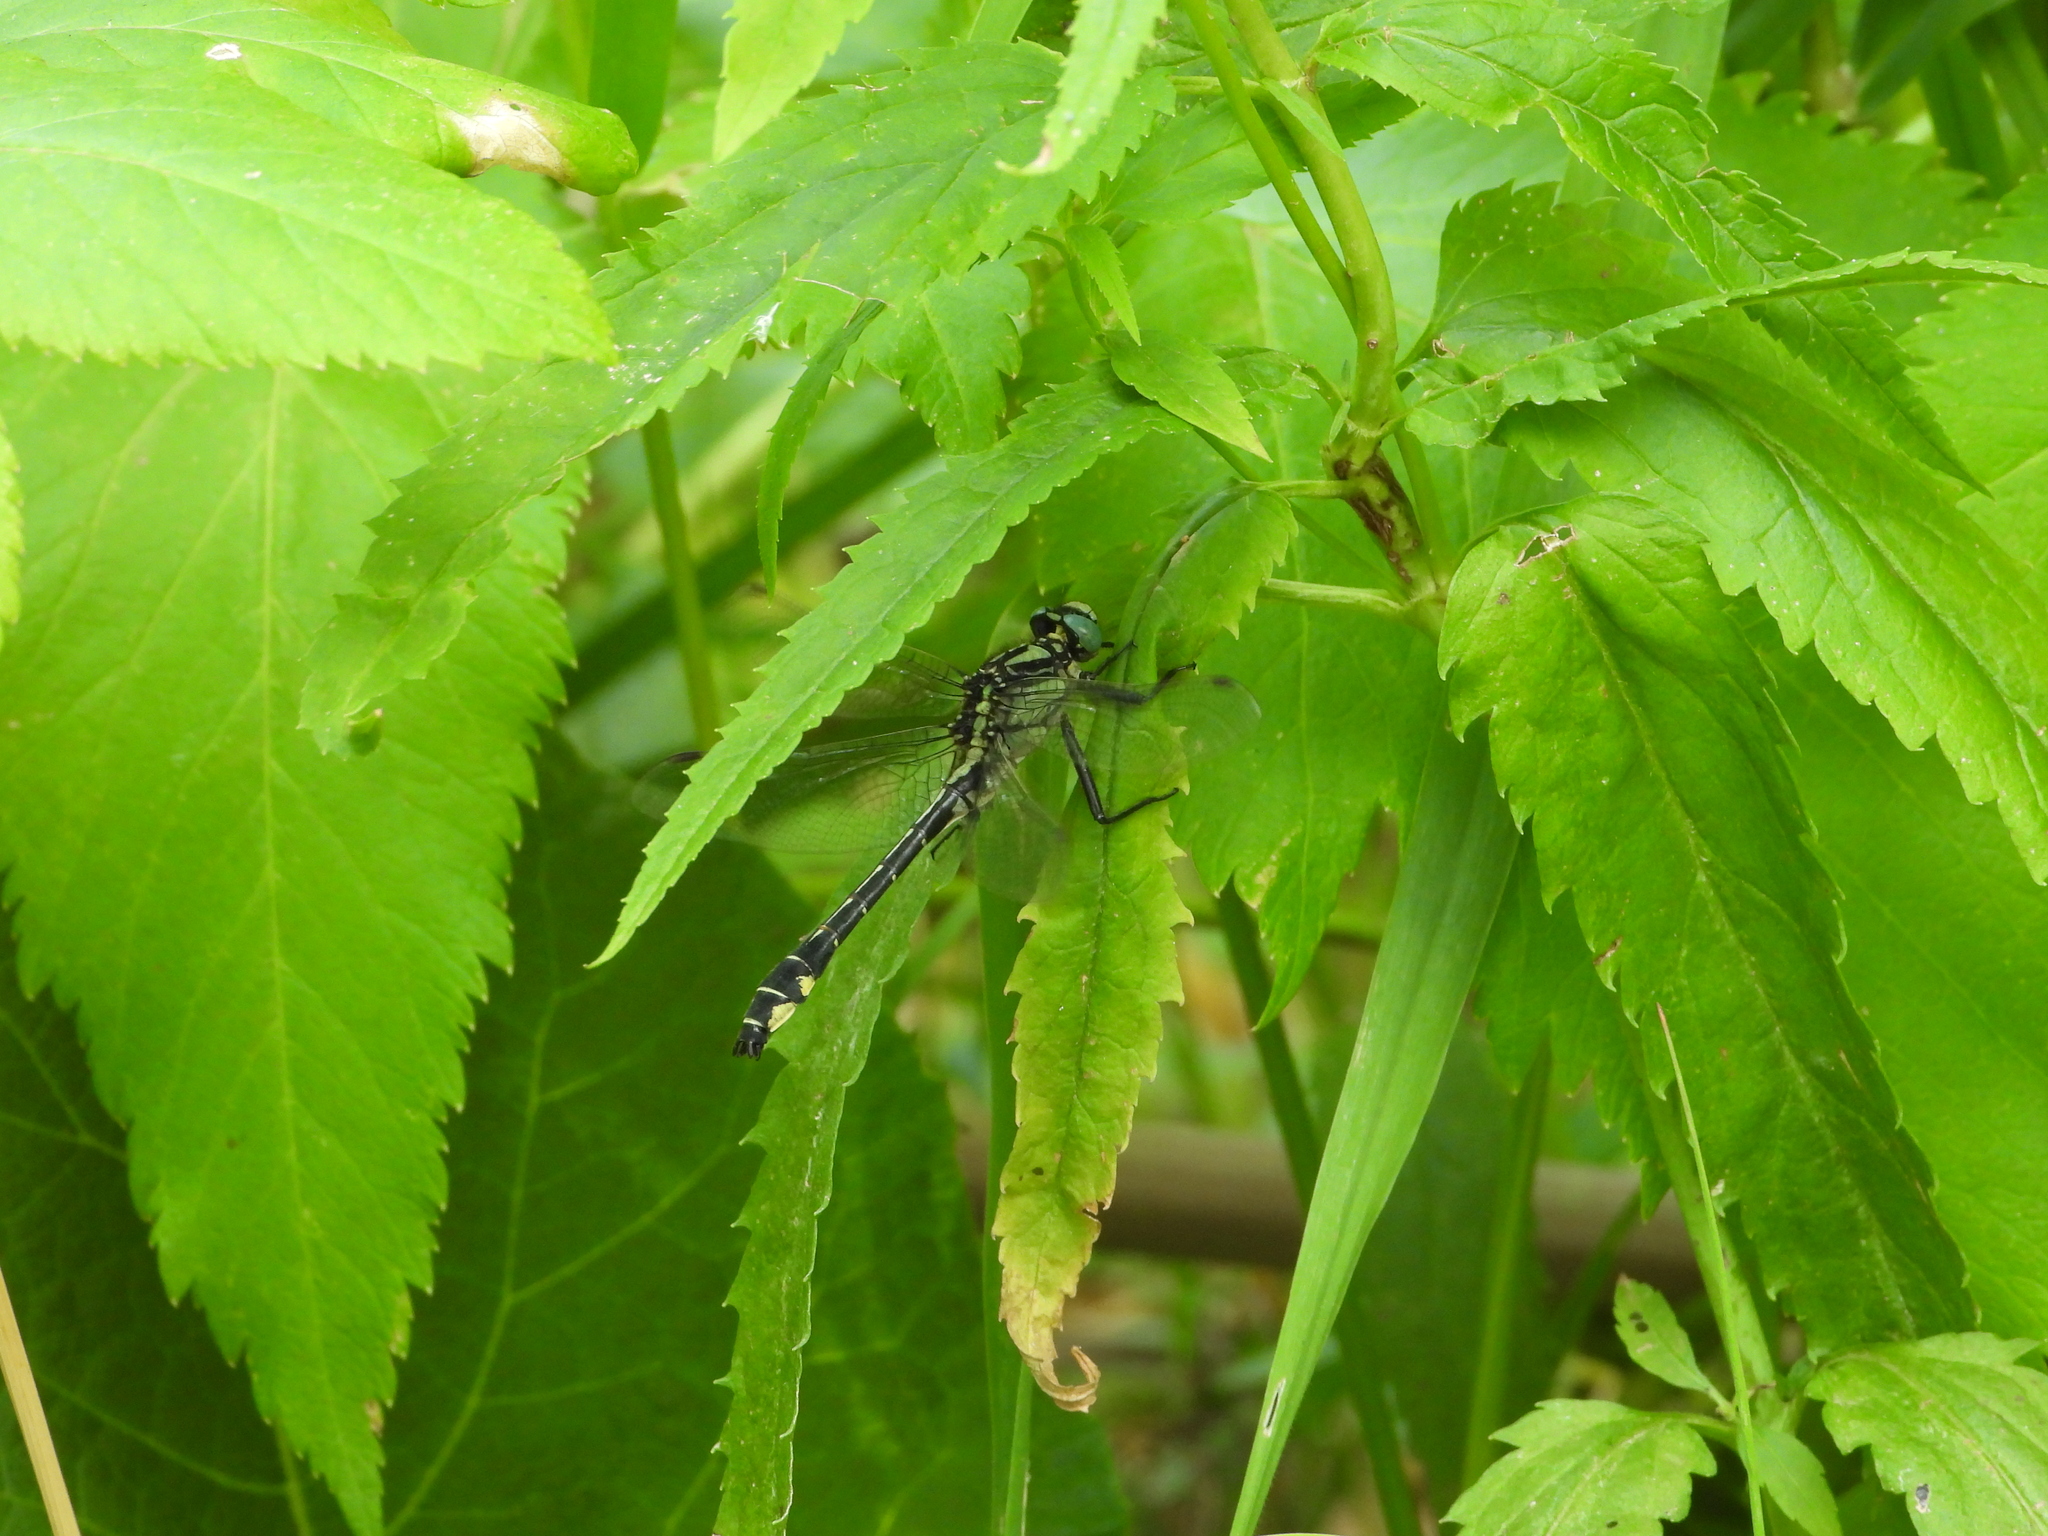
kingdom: Animalia
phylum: Arthropoda
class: Insecta
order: Odonata
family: Gomphidae
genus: Gomphus
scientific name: Gomphus vulgatissimus
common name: Club-tailed dragonfly
